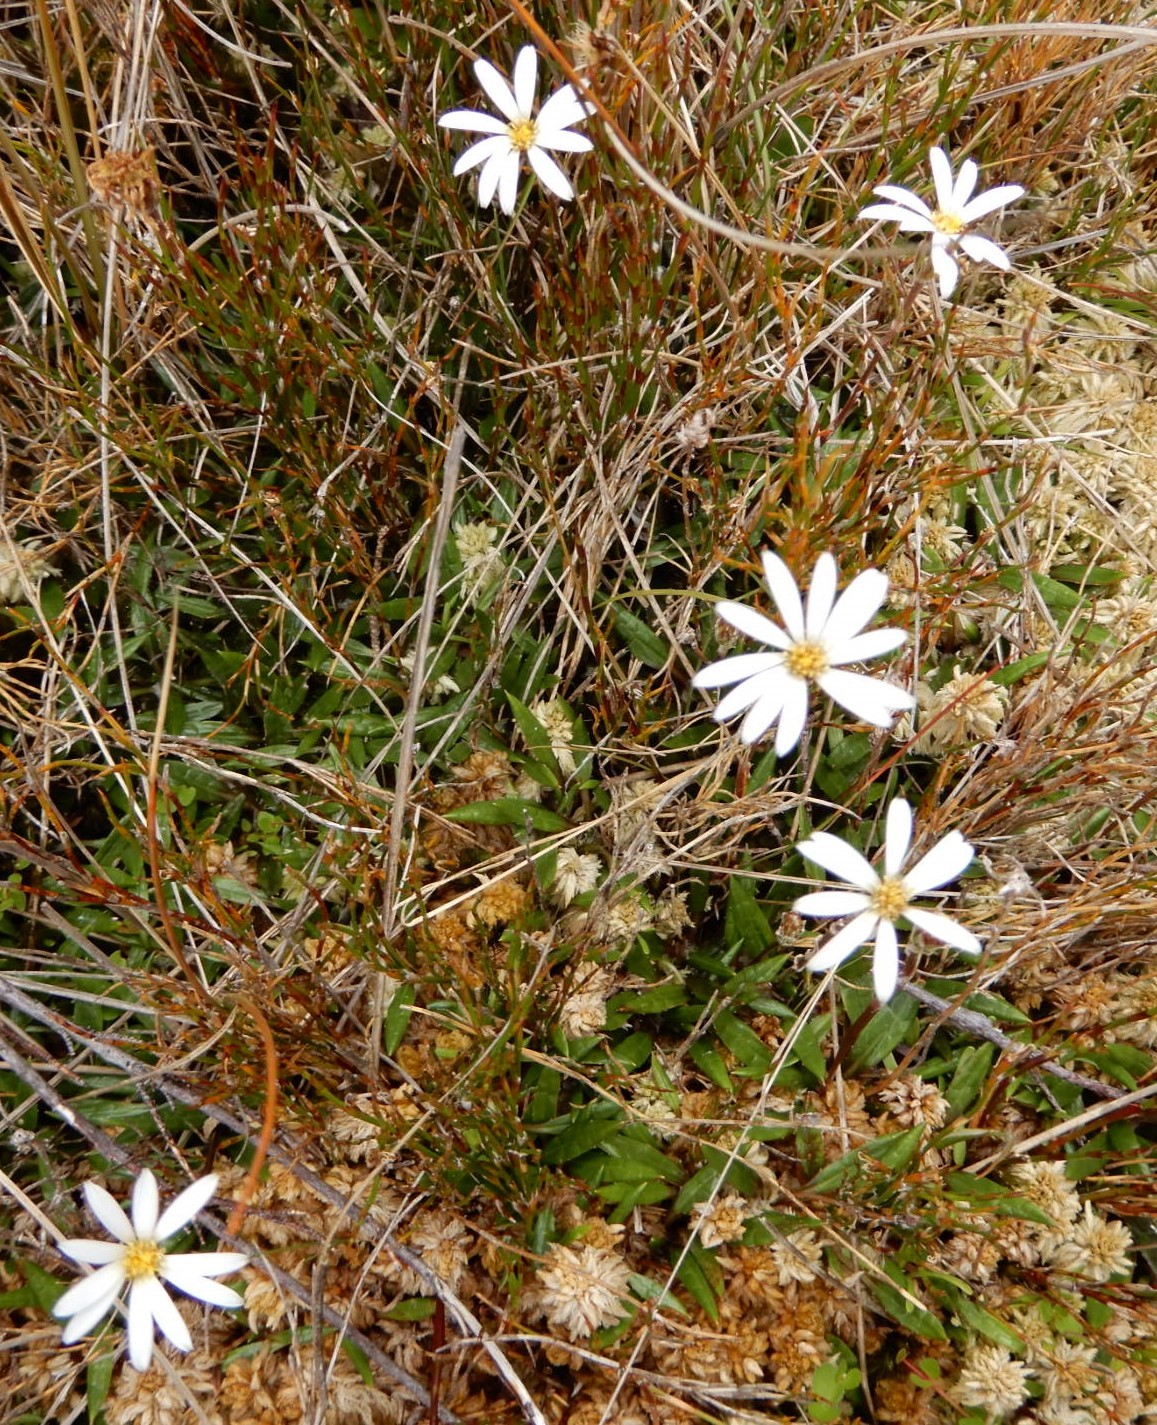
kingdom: Plantae
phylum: Tracheophyta
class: Magnoliopsida
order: Asterales
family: Asteraceae
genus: Celmisia
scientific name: Celmisia parva
